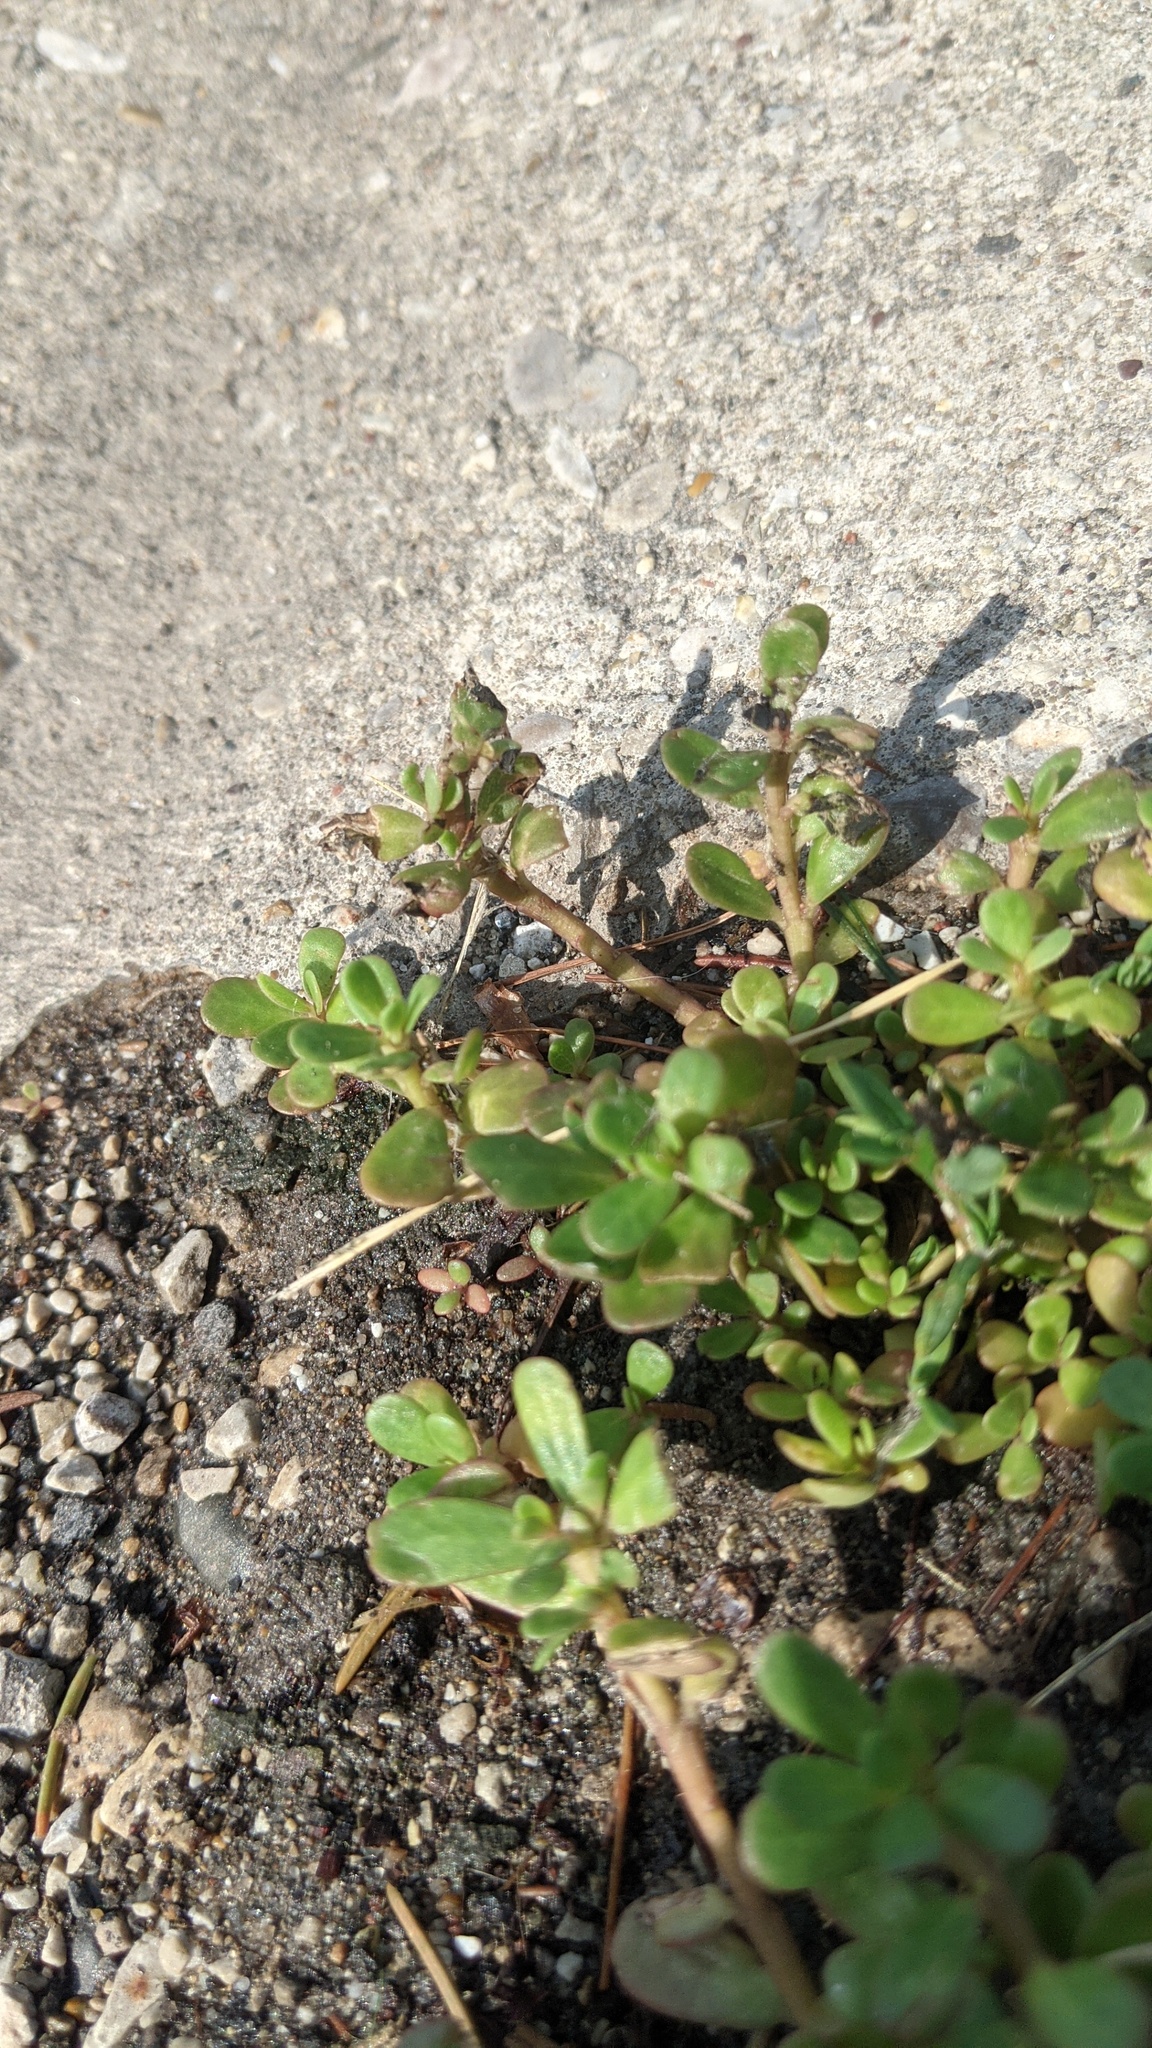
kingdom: Plantae
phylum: Tracheophyta
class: Magnoliopsida
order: Caryophyllales
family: Portulacaceae
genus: Portulaca
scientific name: Portulaca oleracea
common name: Common purslane
